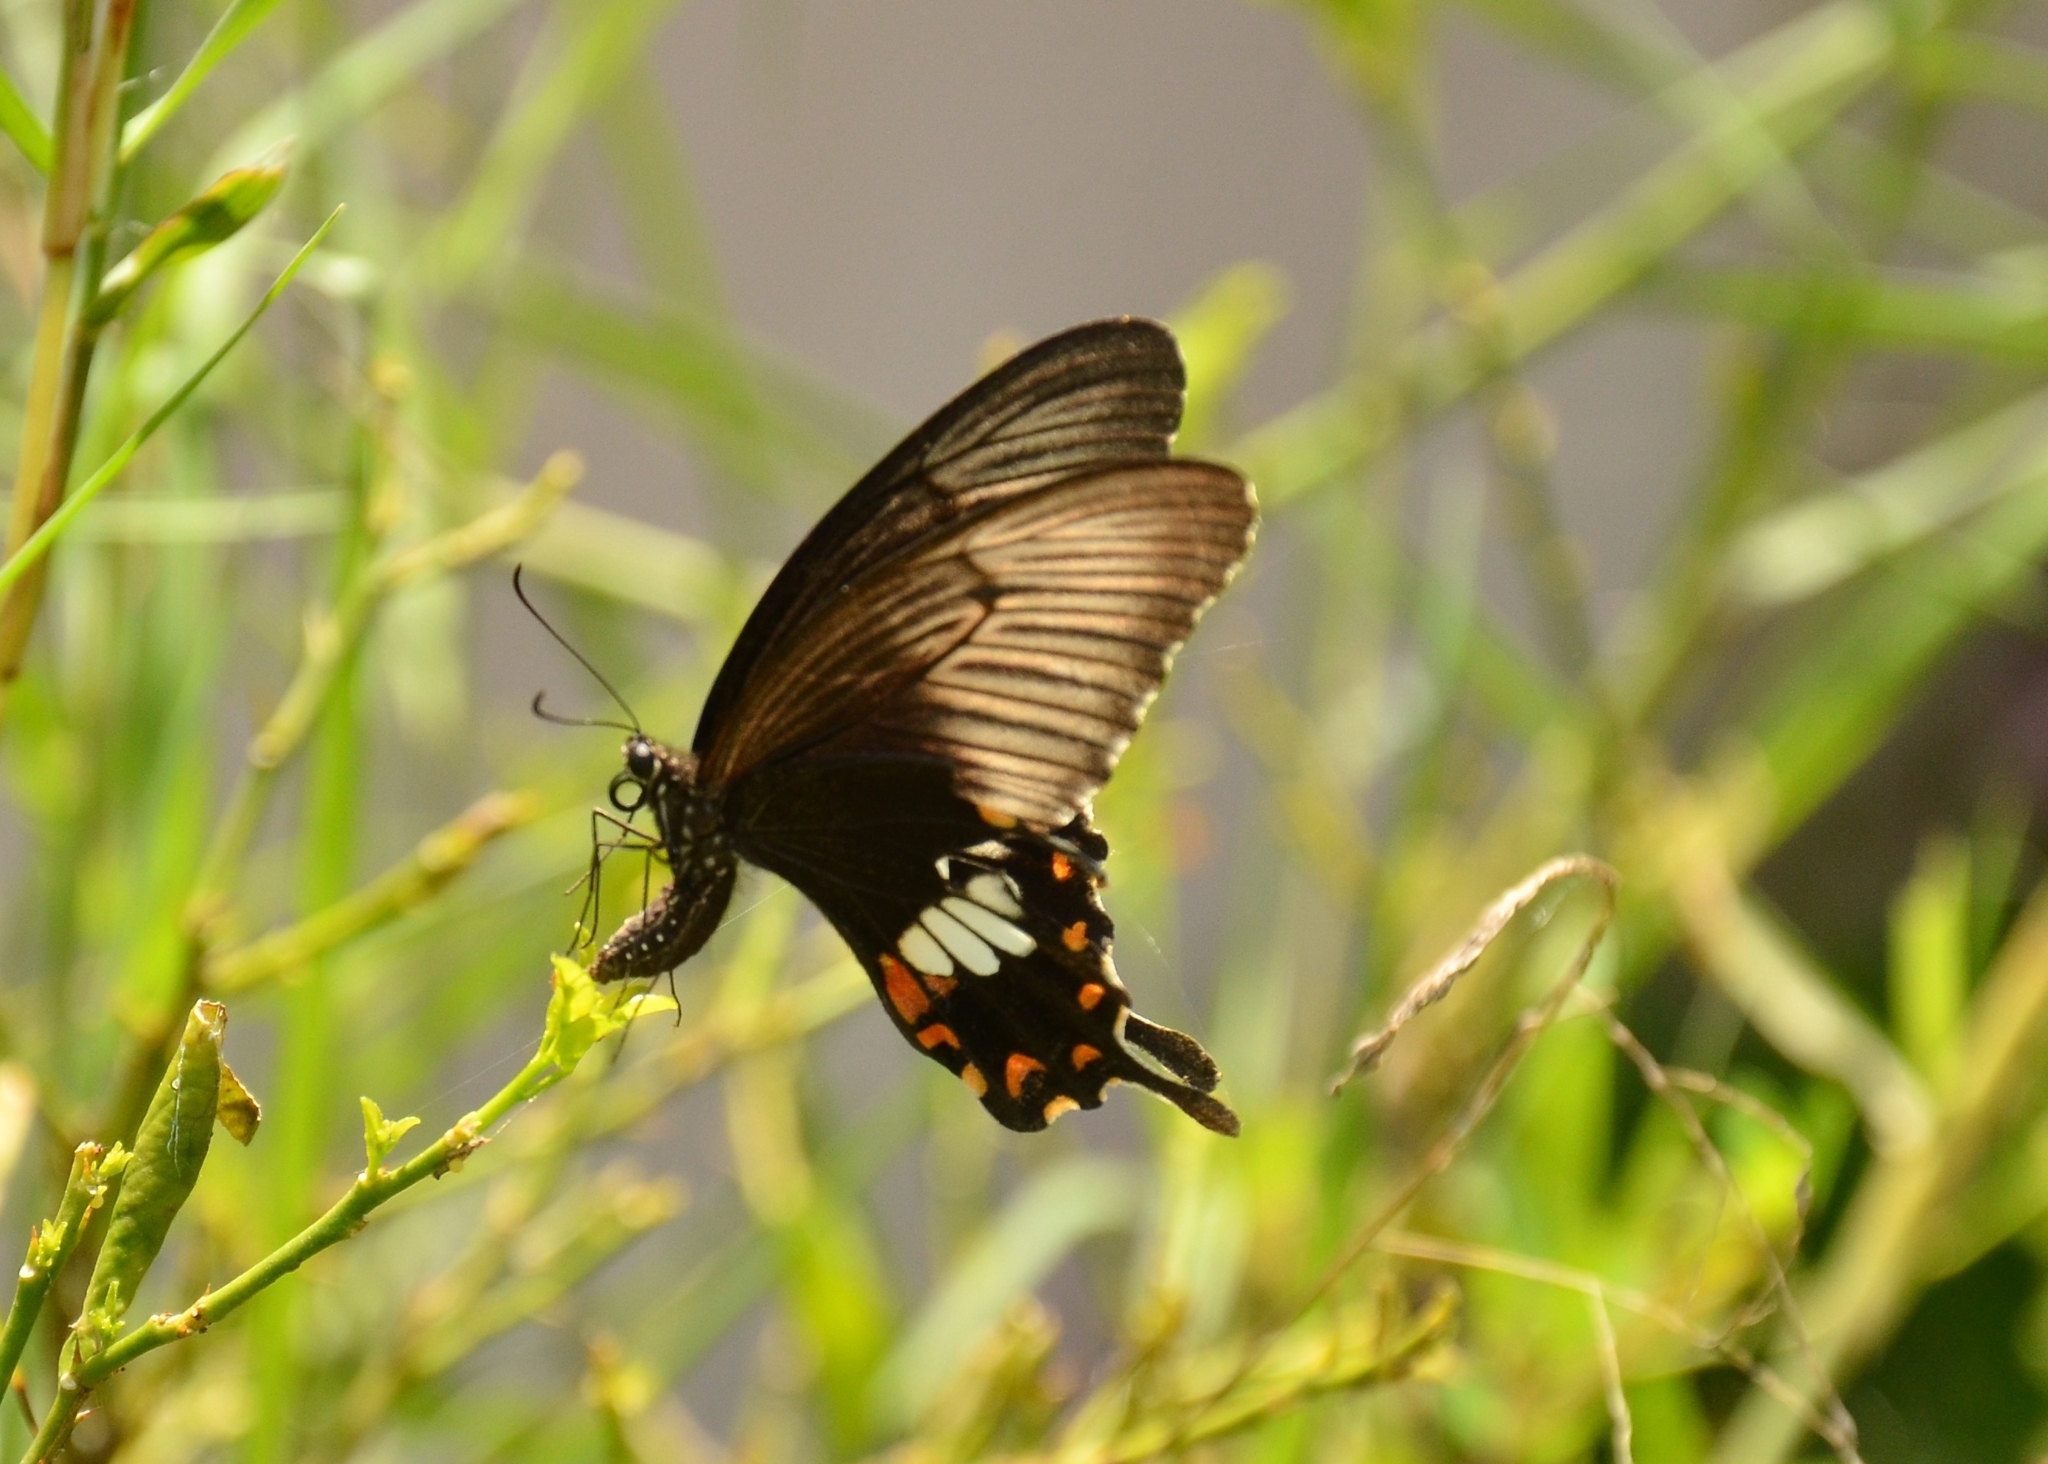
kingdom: Animalia
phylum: Arthropoda
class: Insecta
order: Lepidoptera
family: Papilionidae
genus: Papilio
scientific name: Papilio polytes
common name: Common mormon
